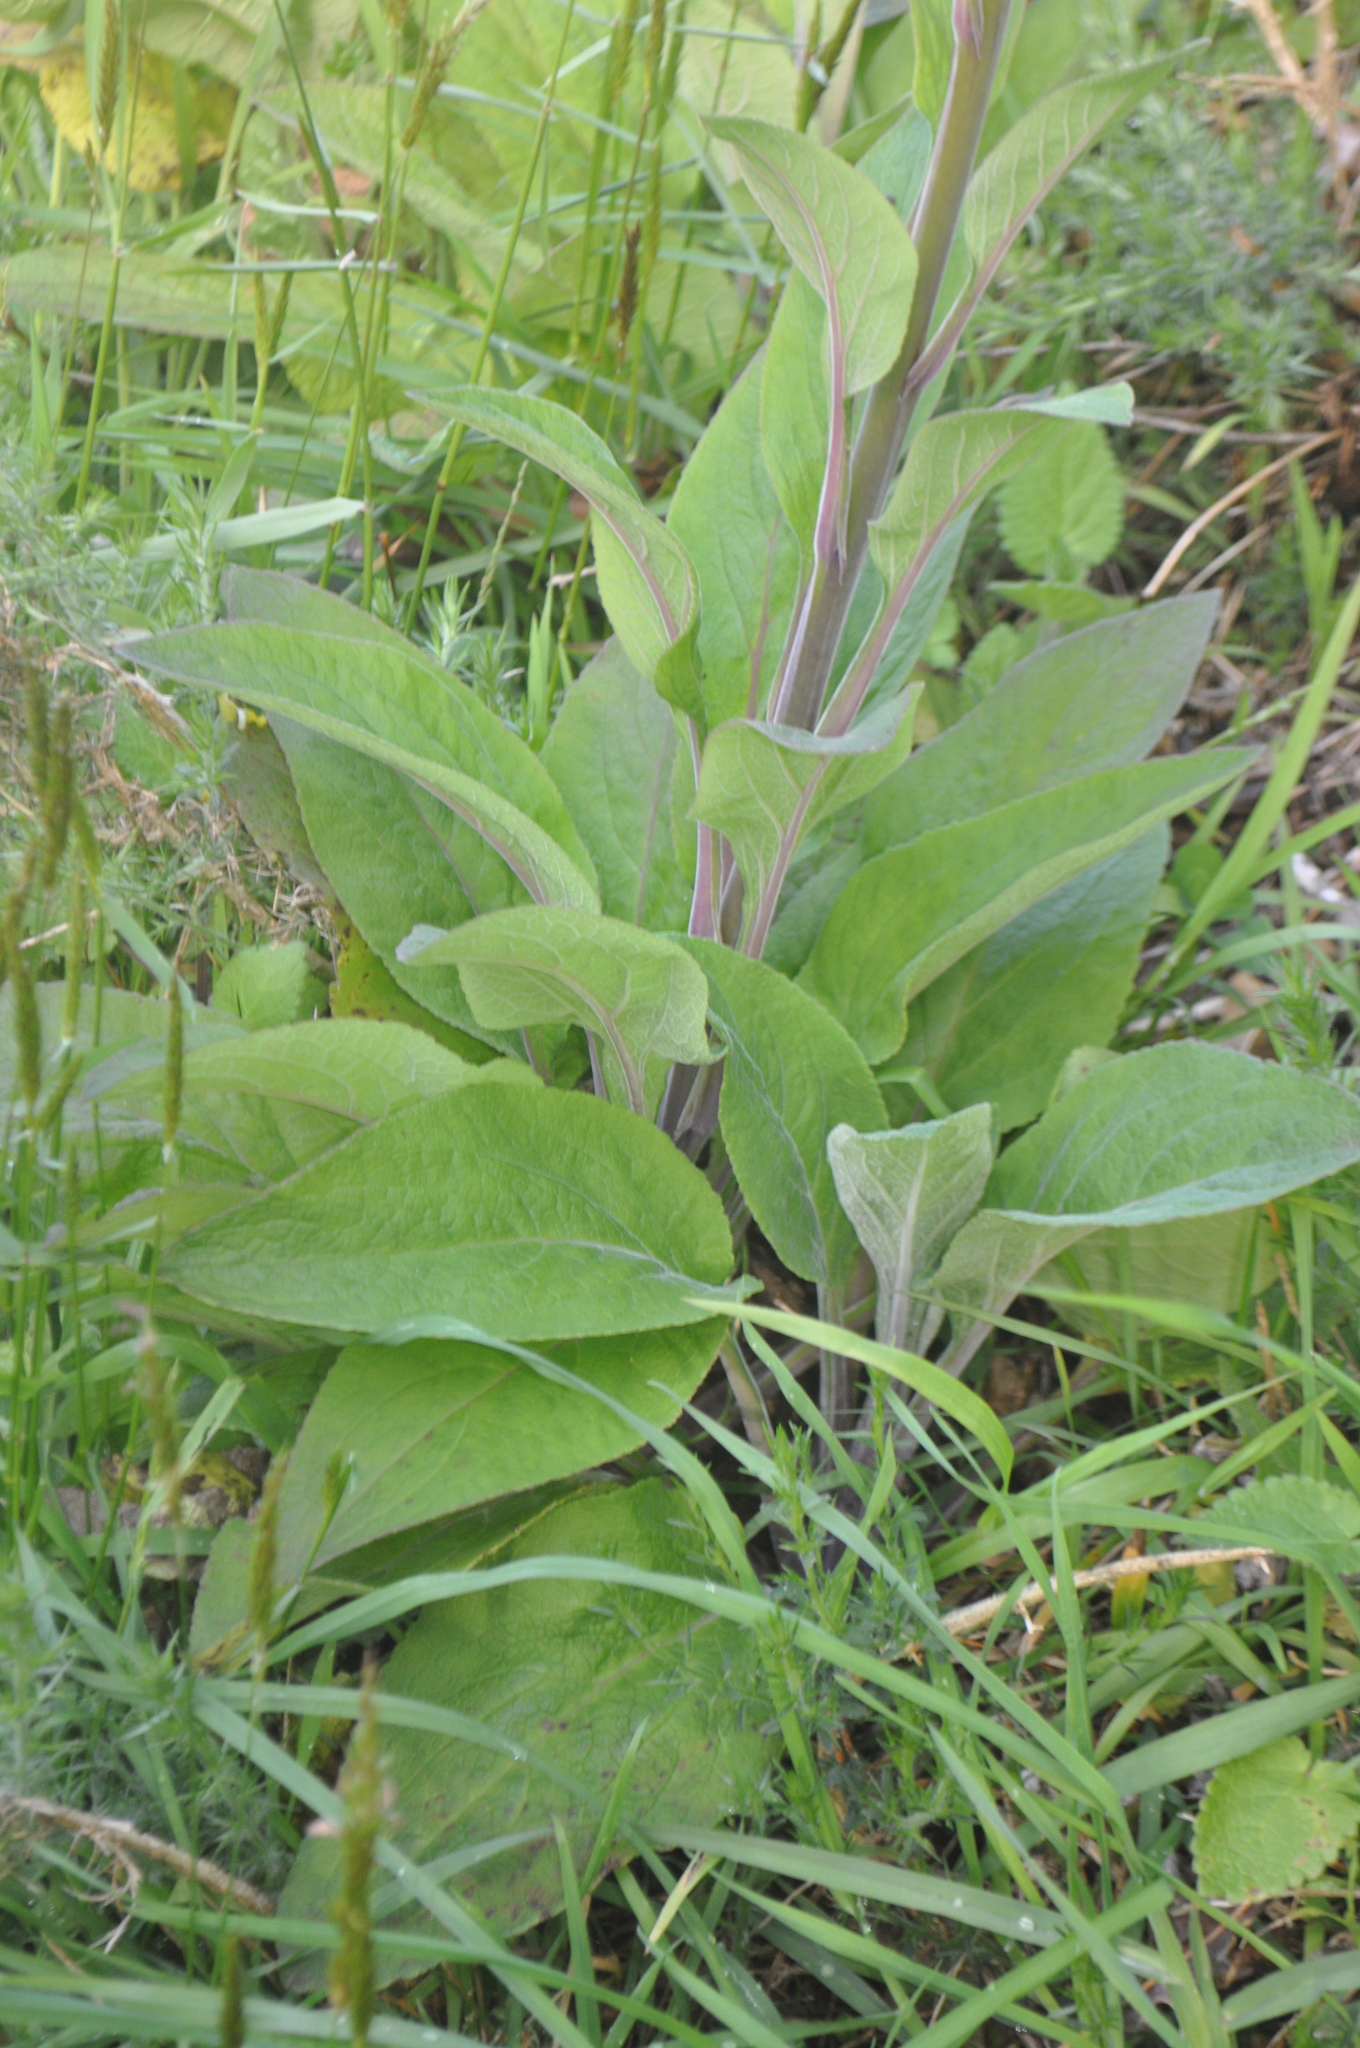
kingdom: Plantae
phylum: Tracheophyta
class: Magnoliopsida
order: Lamiales
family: Plantaginaceae
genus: Digitalis
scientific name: Digitalis purpurea
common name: Foxglove
